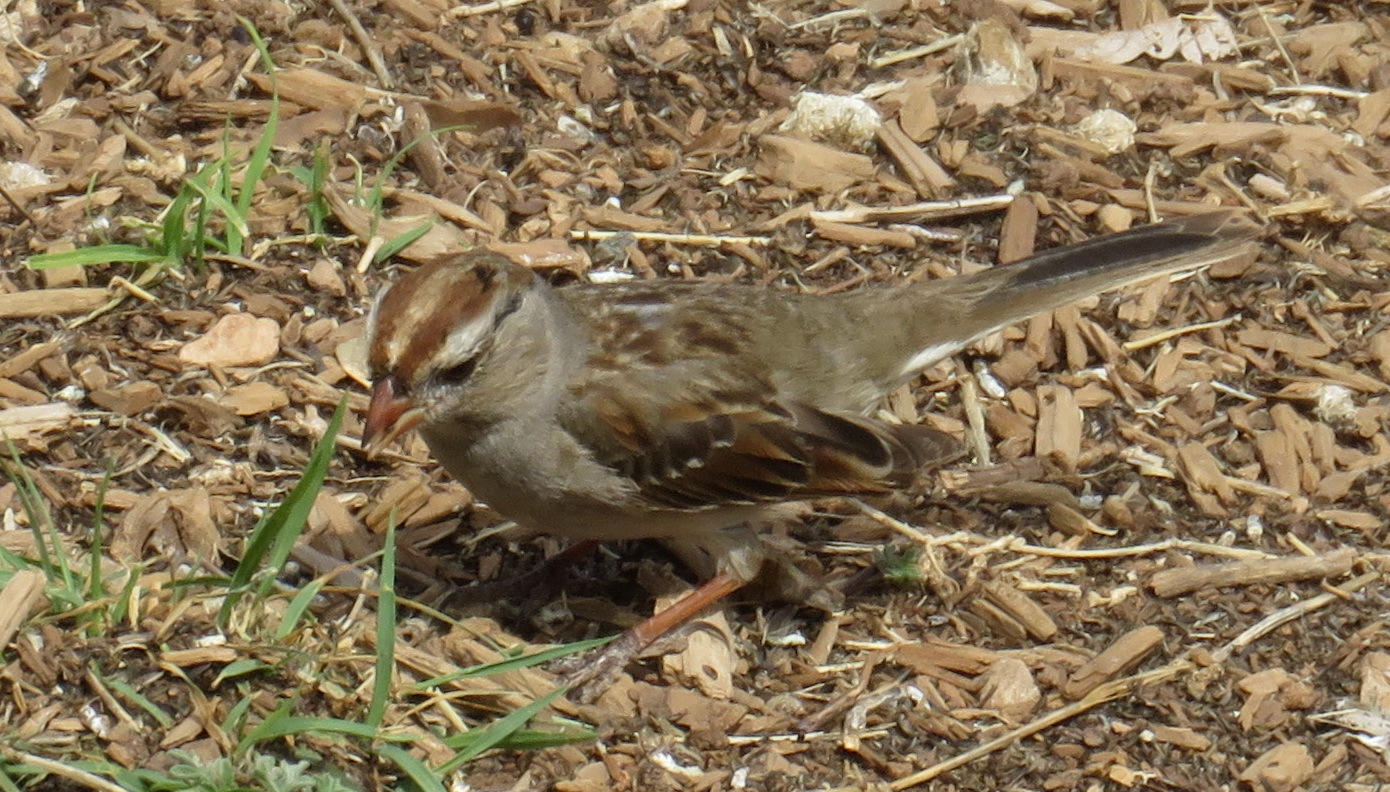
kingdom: Animalia
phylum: Chordata
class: Aves
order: Passeriformes
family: Passerellidae
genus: Zonotrichia
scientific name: Zonotrichia leucophrys
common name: White-crowned sparrow
